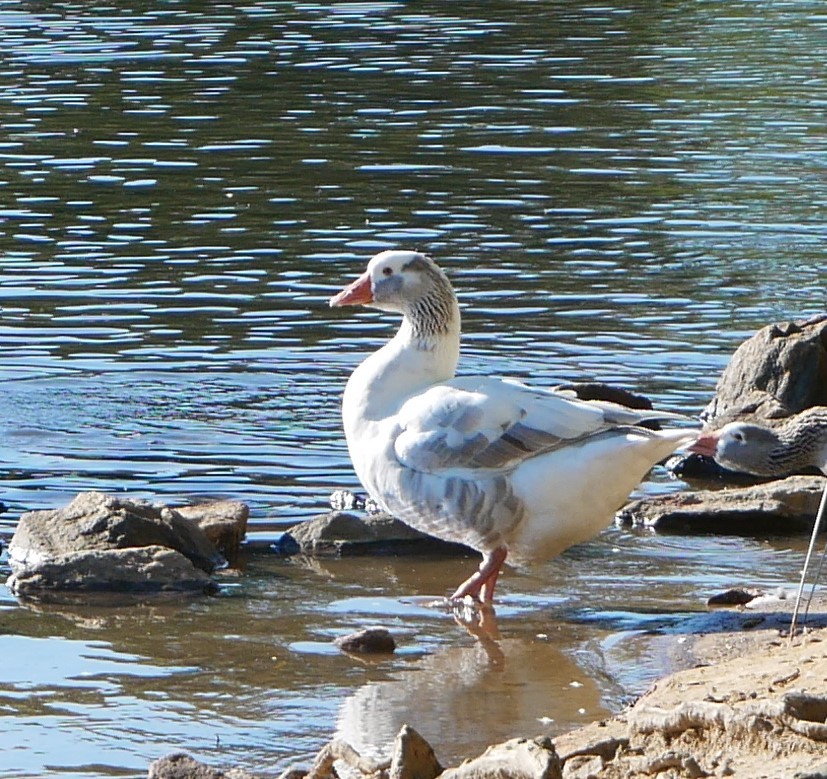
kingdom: Animalia
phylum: Chordata
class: Aves
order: Anseriformes
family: Anatidae
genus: Anser
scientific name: Anser anser
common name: Greylag goose
